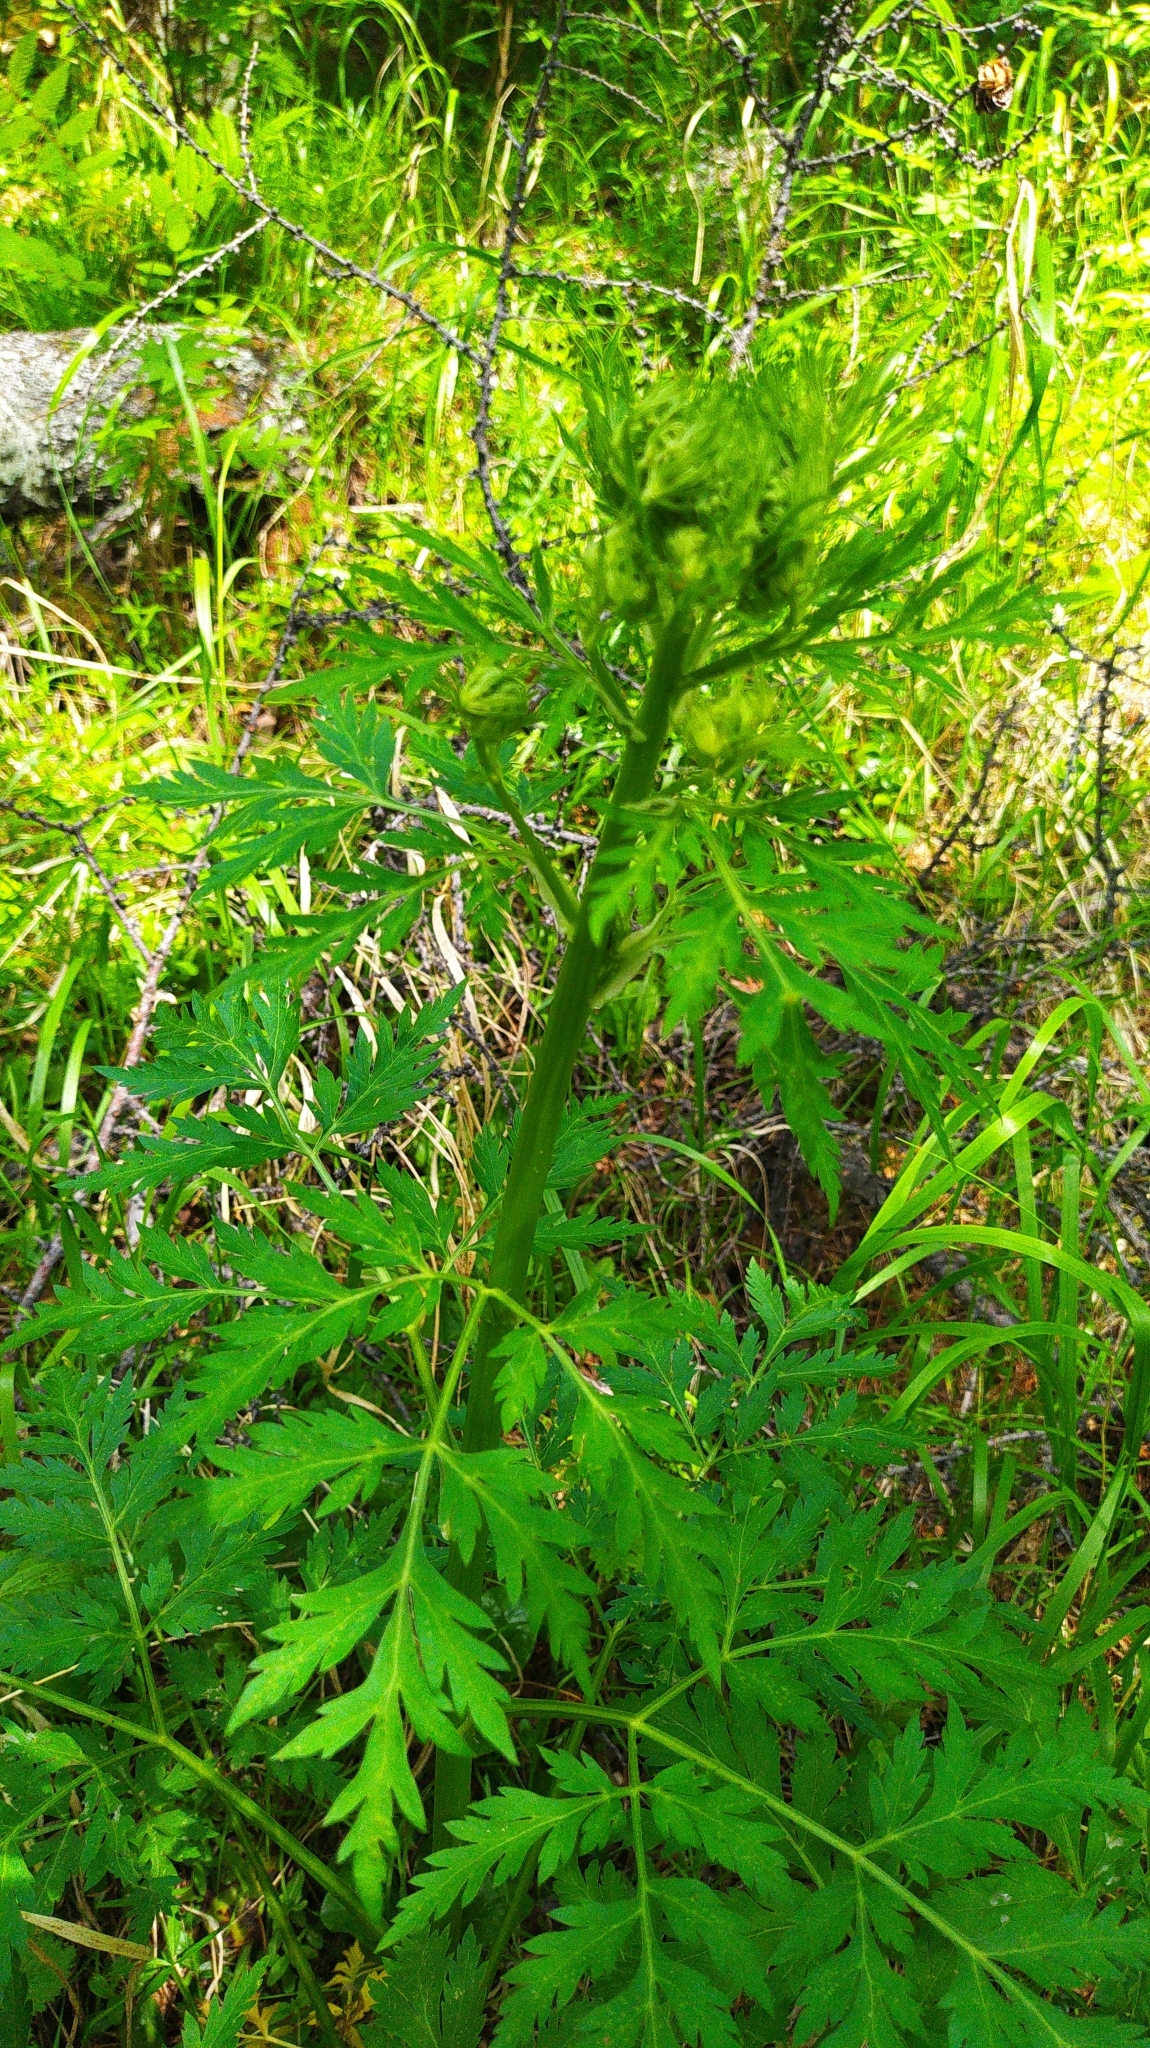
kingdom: Plantae
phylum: Tracheophyta
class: Magnoliopsida
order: Apiales
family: Apiaceae
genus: Pleurospermum
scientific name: Pleurospermum uralense
